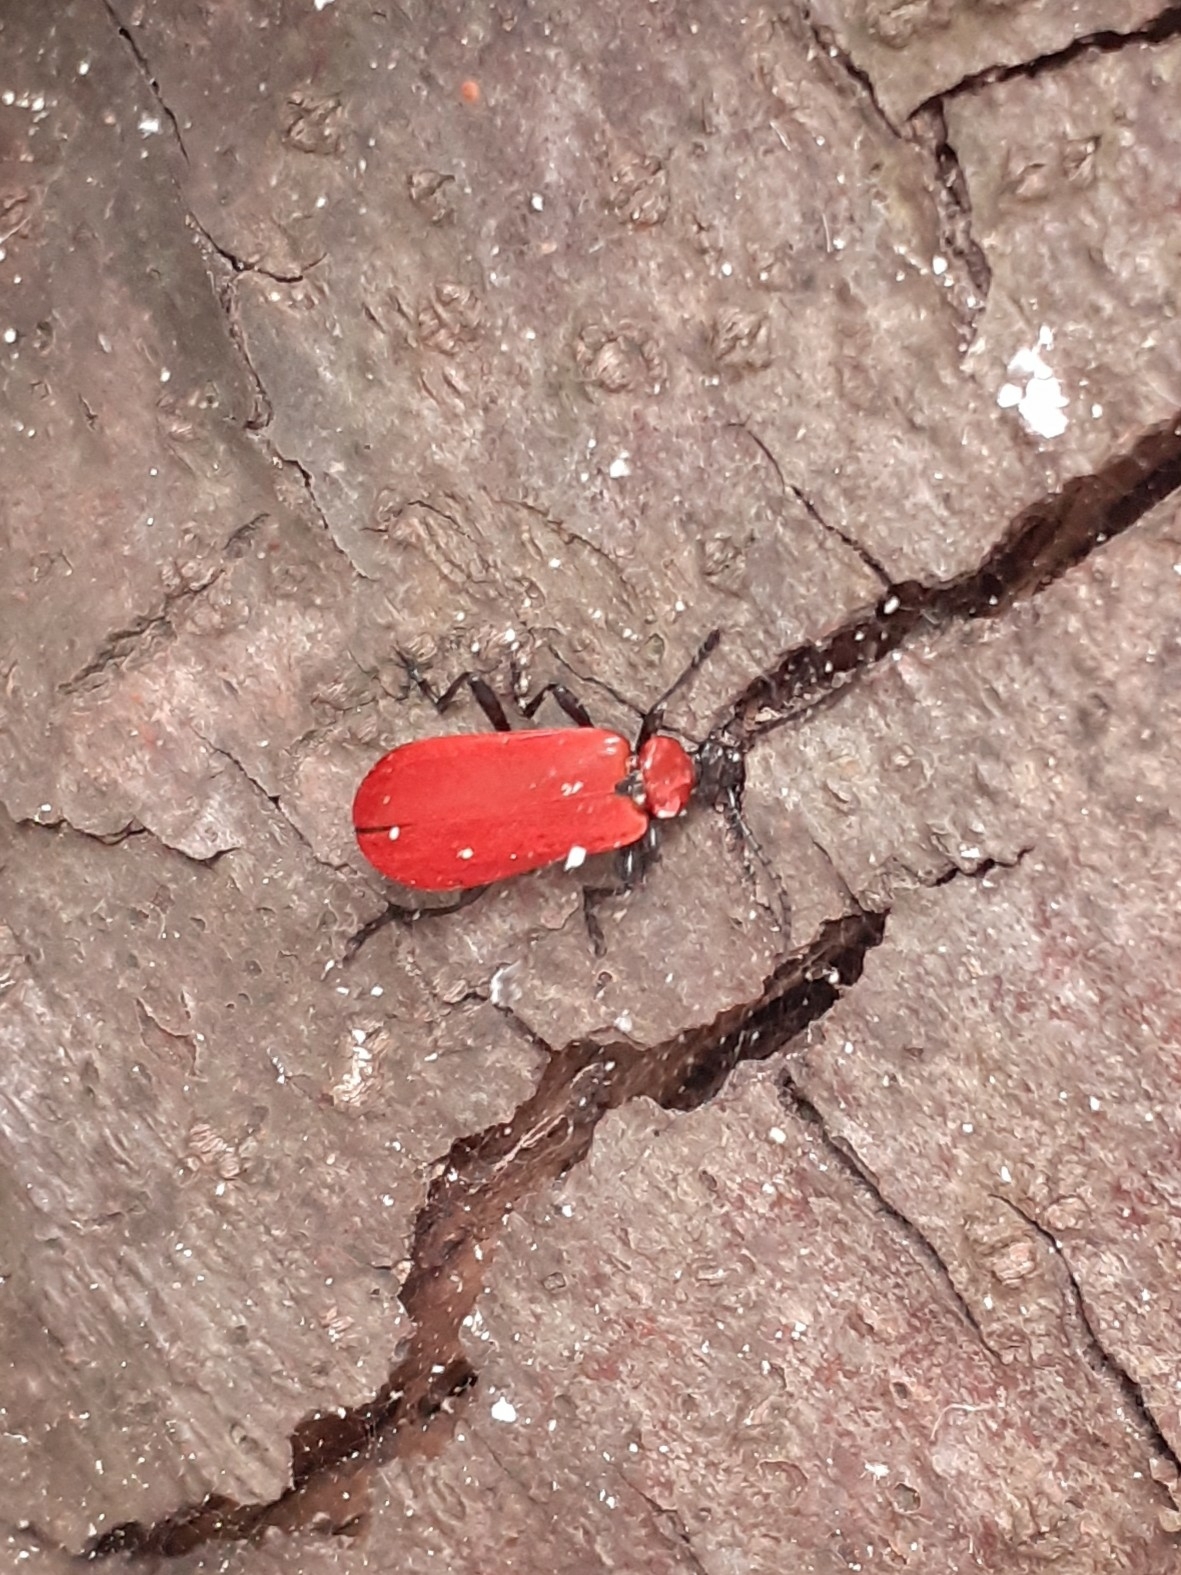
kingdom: Animalia
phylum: Arthropoda
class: Insecta
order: Coleoptera
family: Pyrochroidae
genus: Pyrochroa
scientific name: Pyrochroa coccinea
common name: Black-headed cardinal beetle
